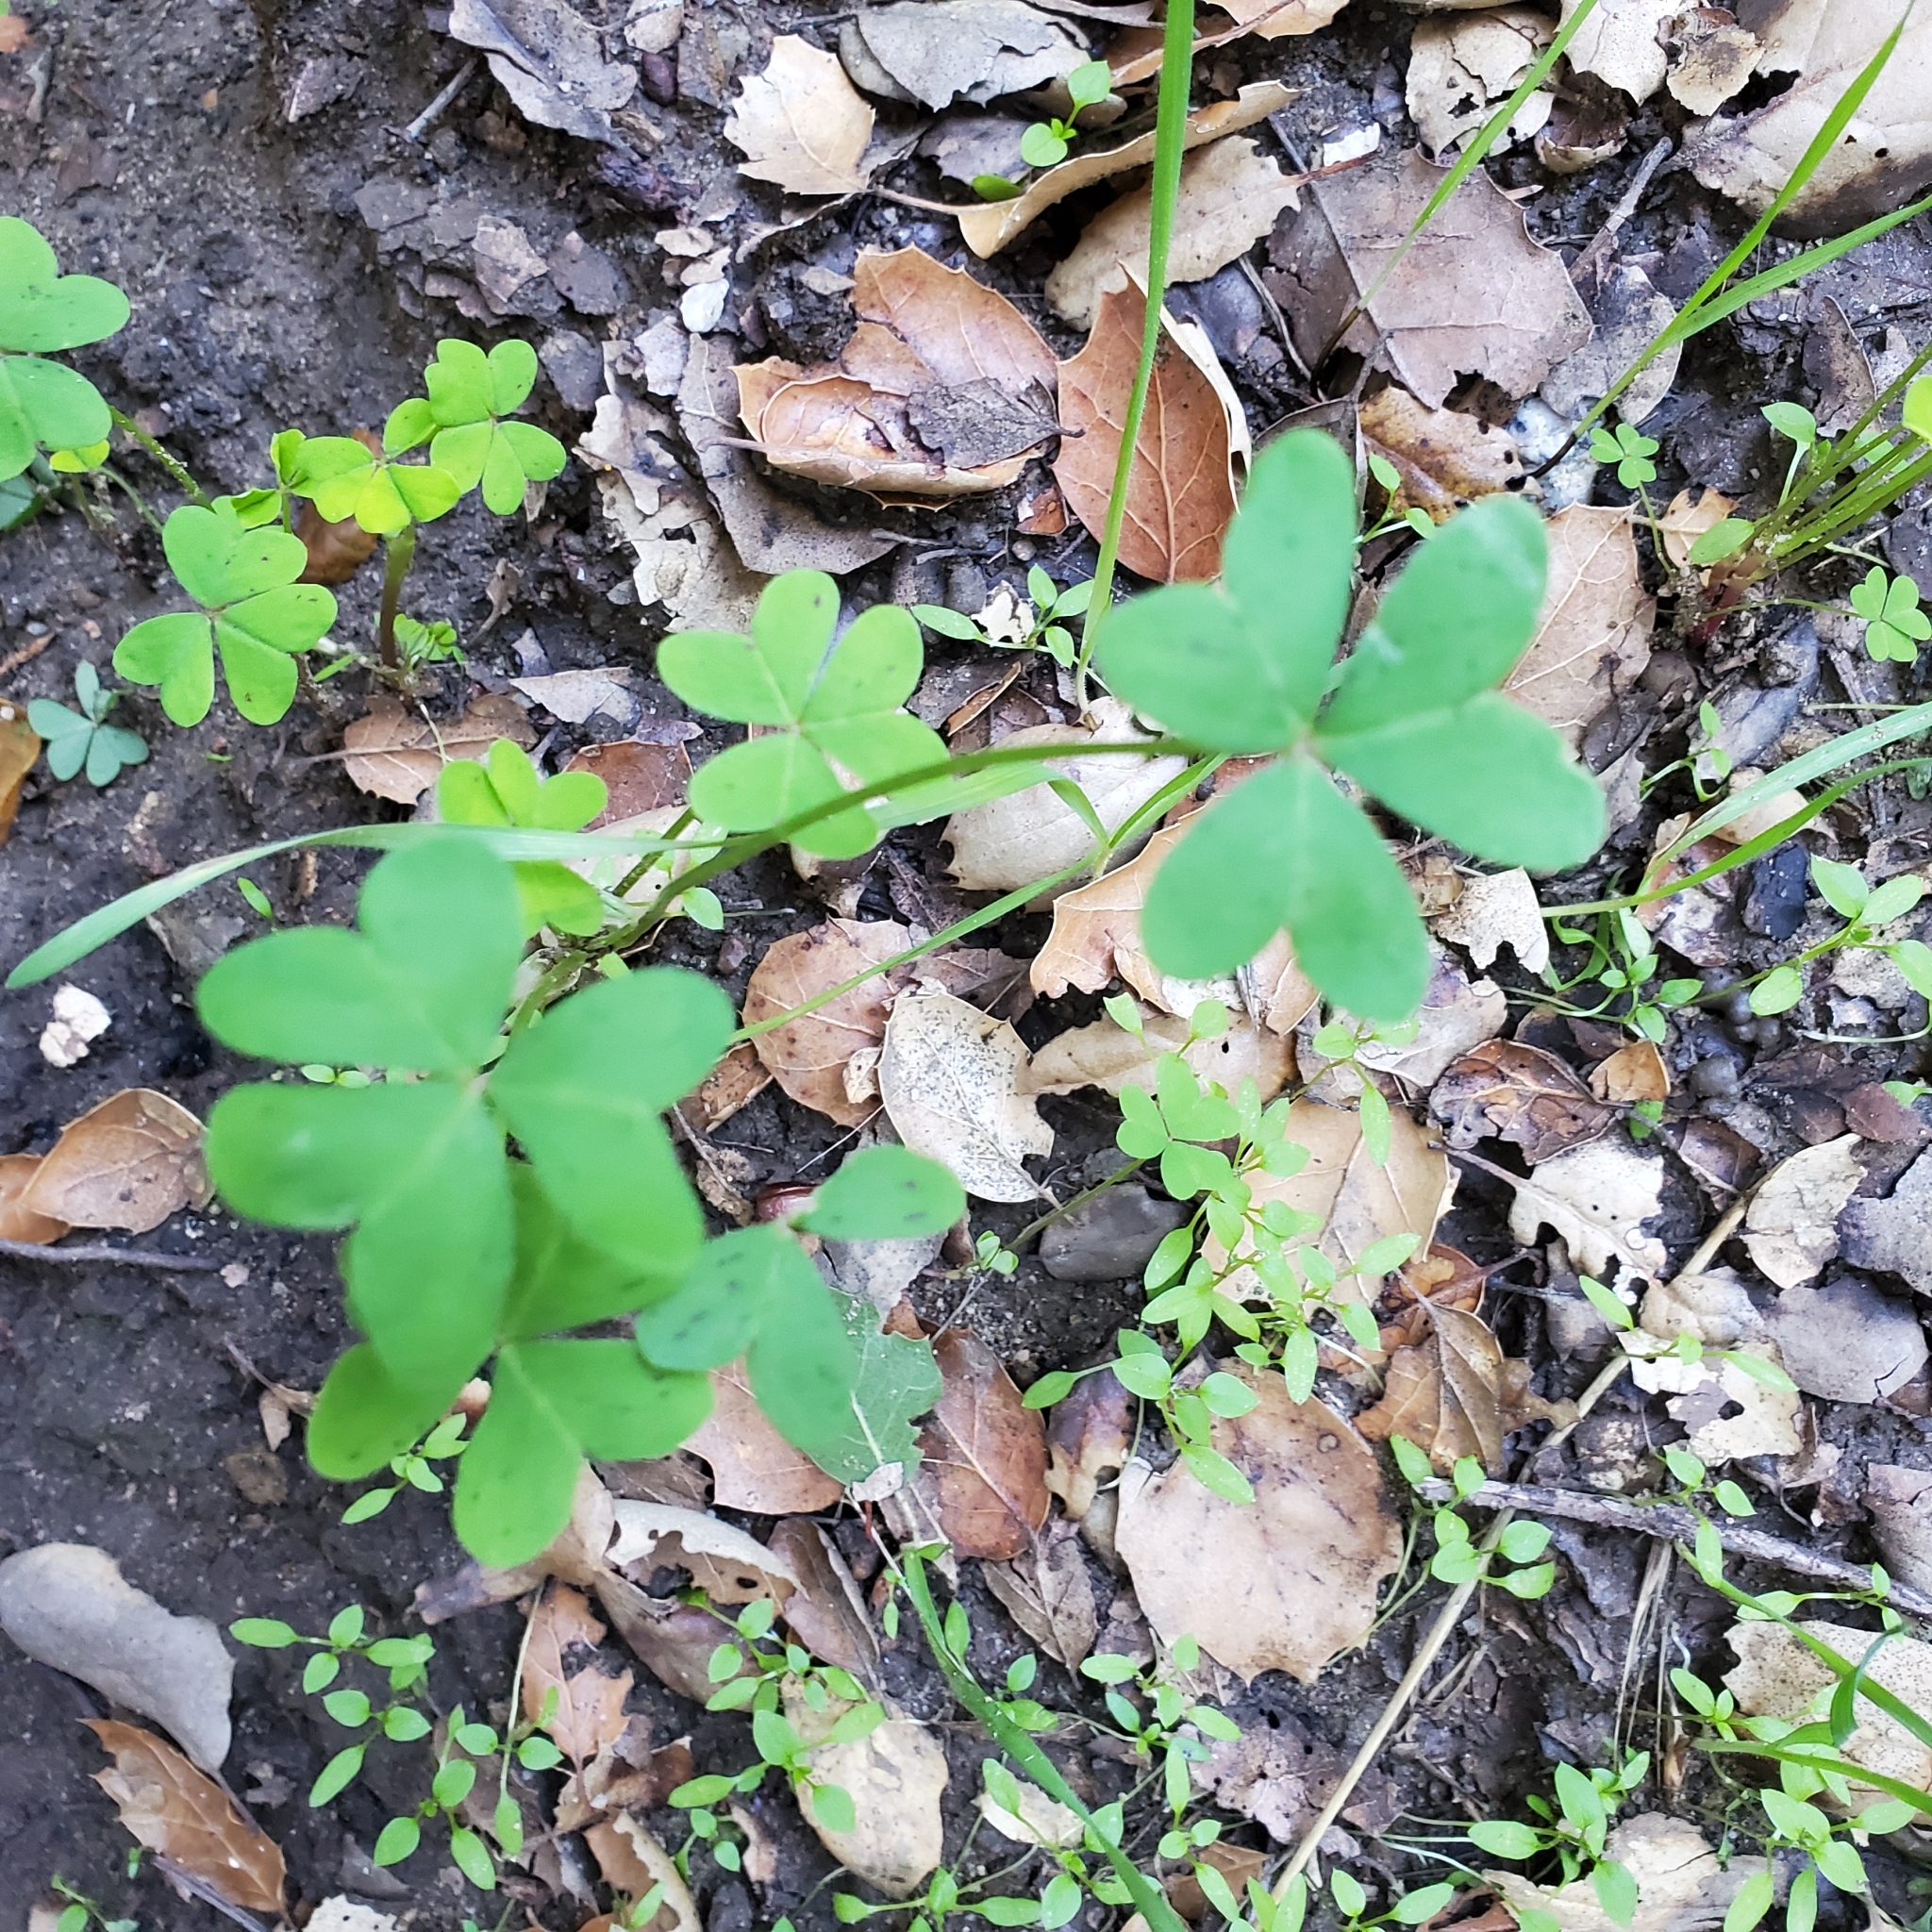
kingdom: Plantae
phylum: Tracheophyta
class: Magnoliopsida
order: Oxalidales
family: Oxalidaceae
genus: Oxalis
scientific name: Oxalis pes-caprae
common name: Bermuda-buttercup
